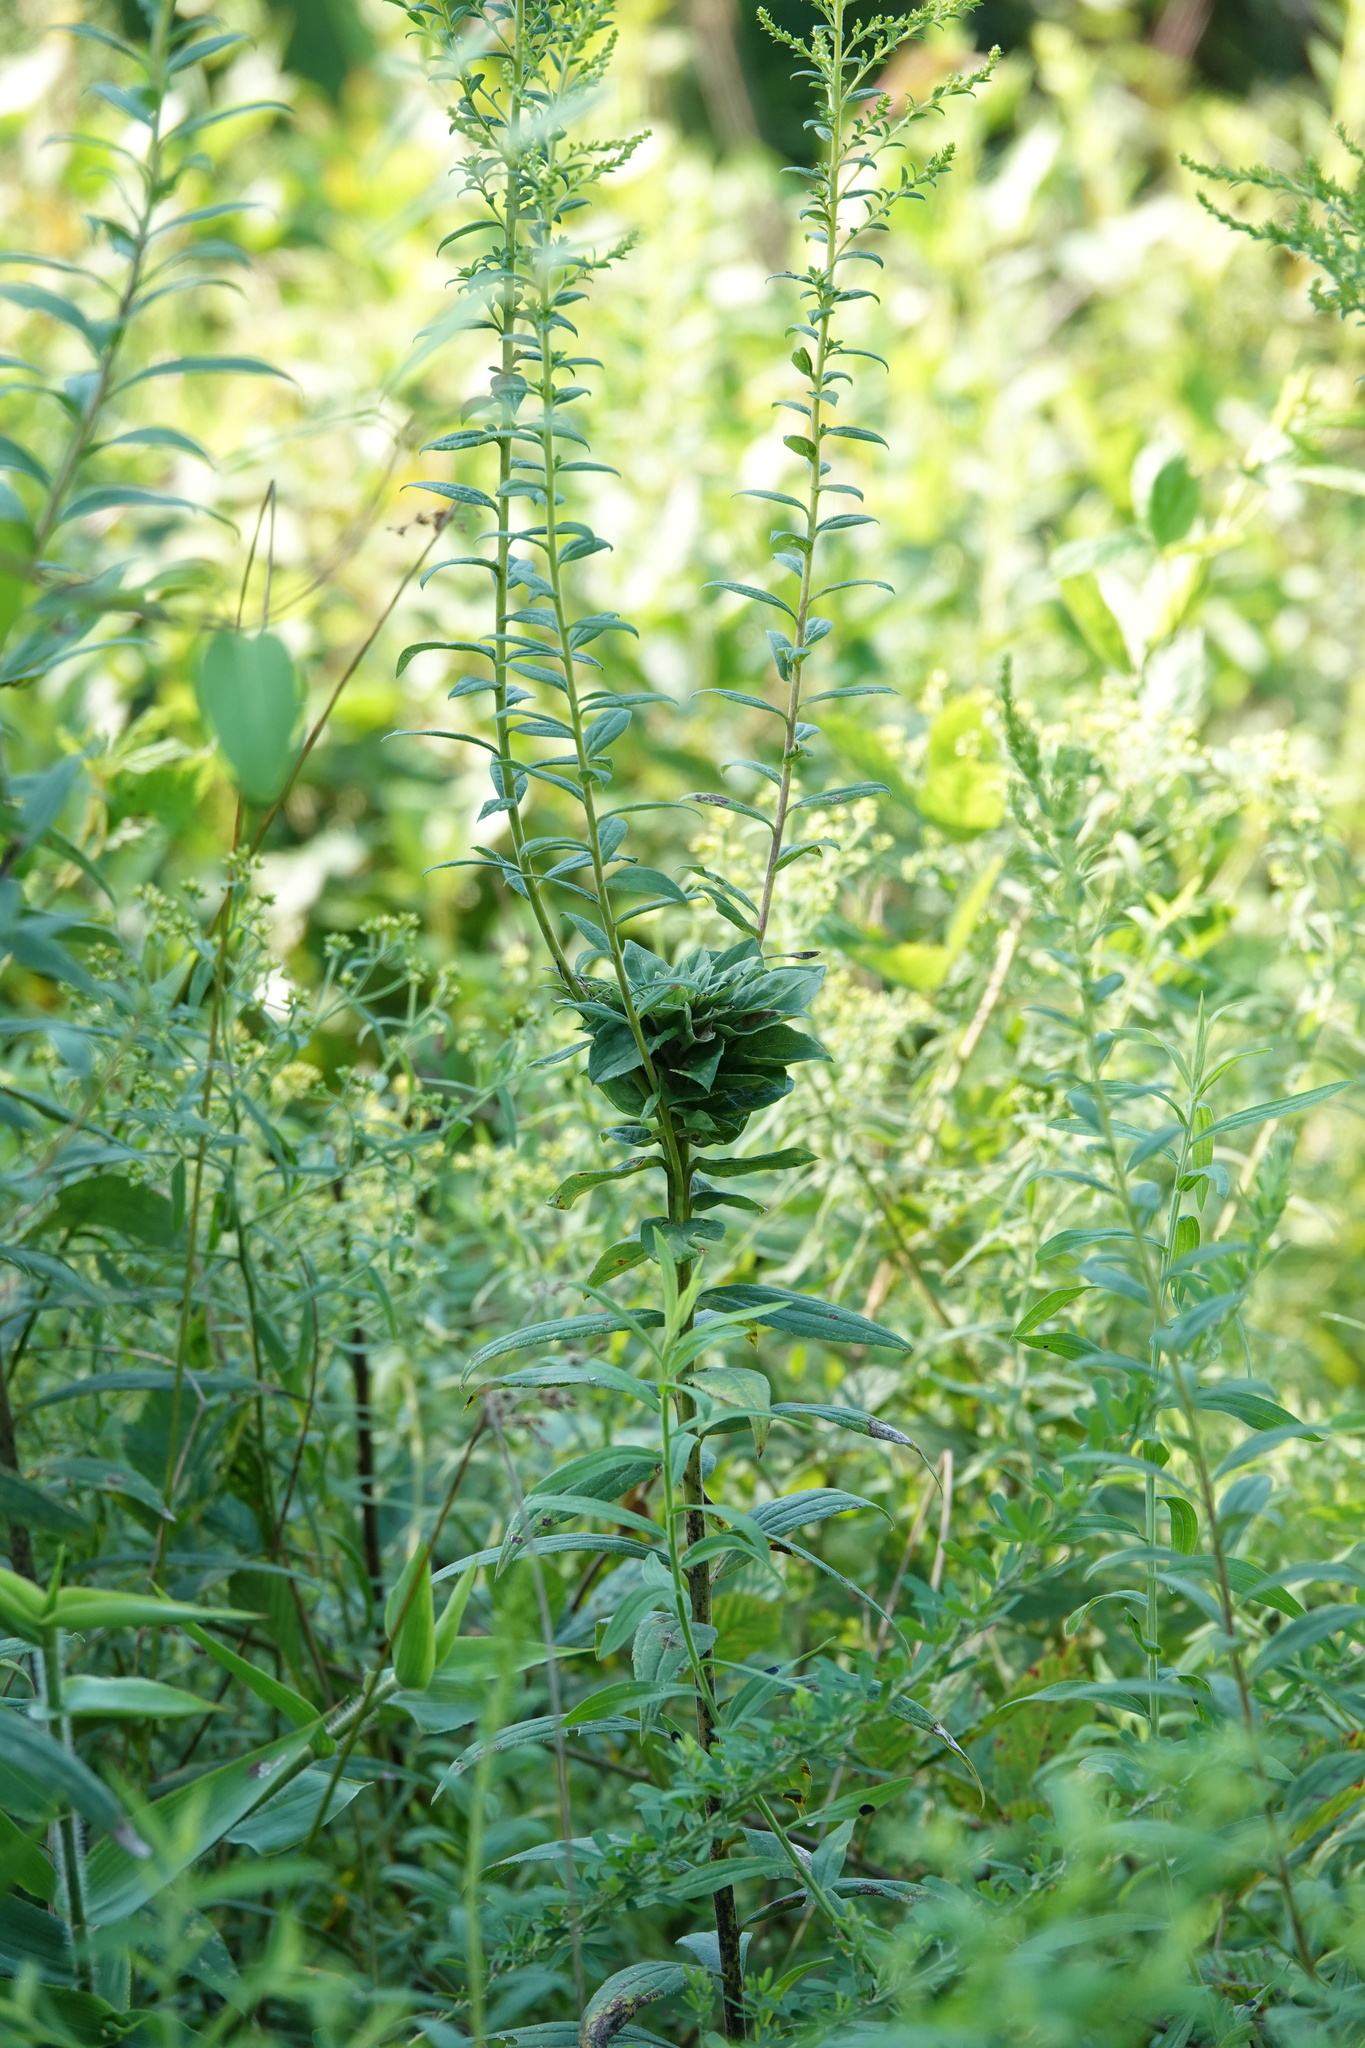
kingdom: Animalia
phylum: Arthropoda
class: Insecta
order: Diptera
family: Cecidomyiidae
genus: Rhopalomyia
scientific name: Rhopalomyia solidaginis
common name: Goldenrod bunch gall midge
